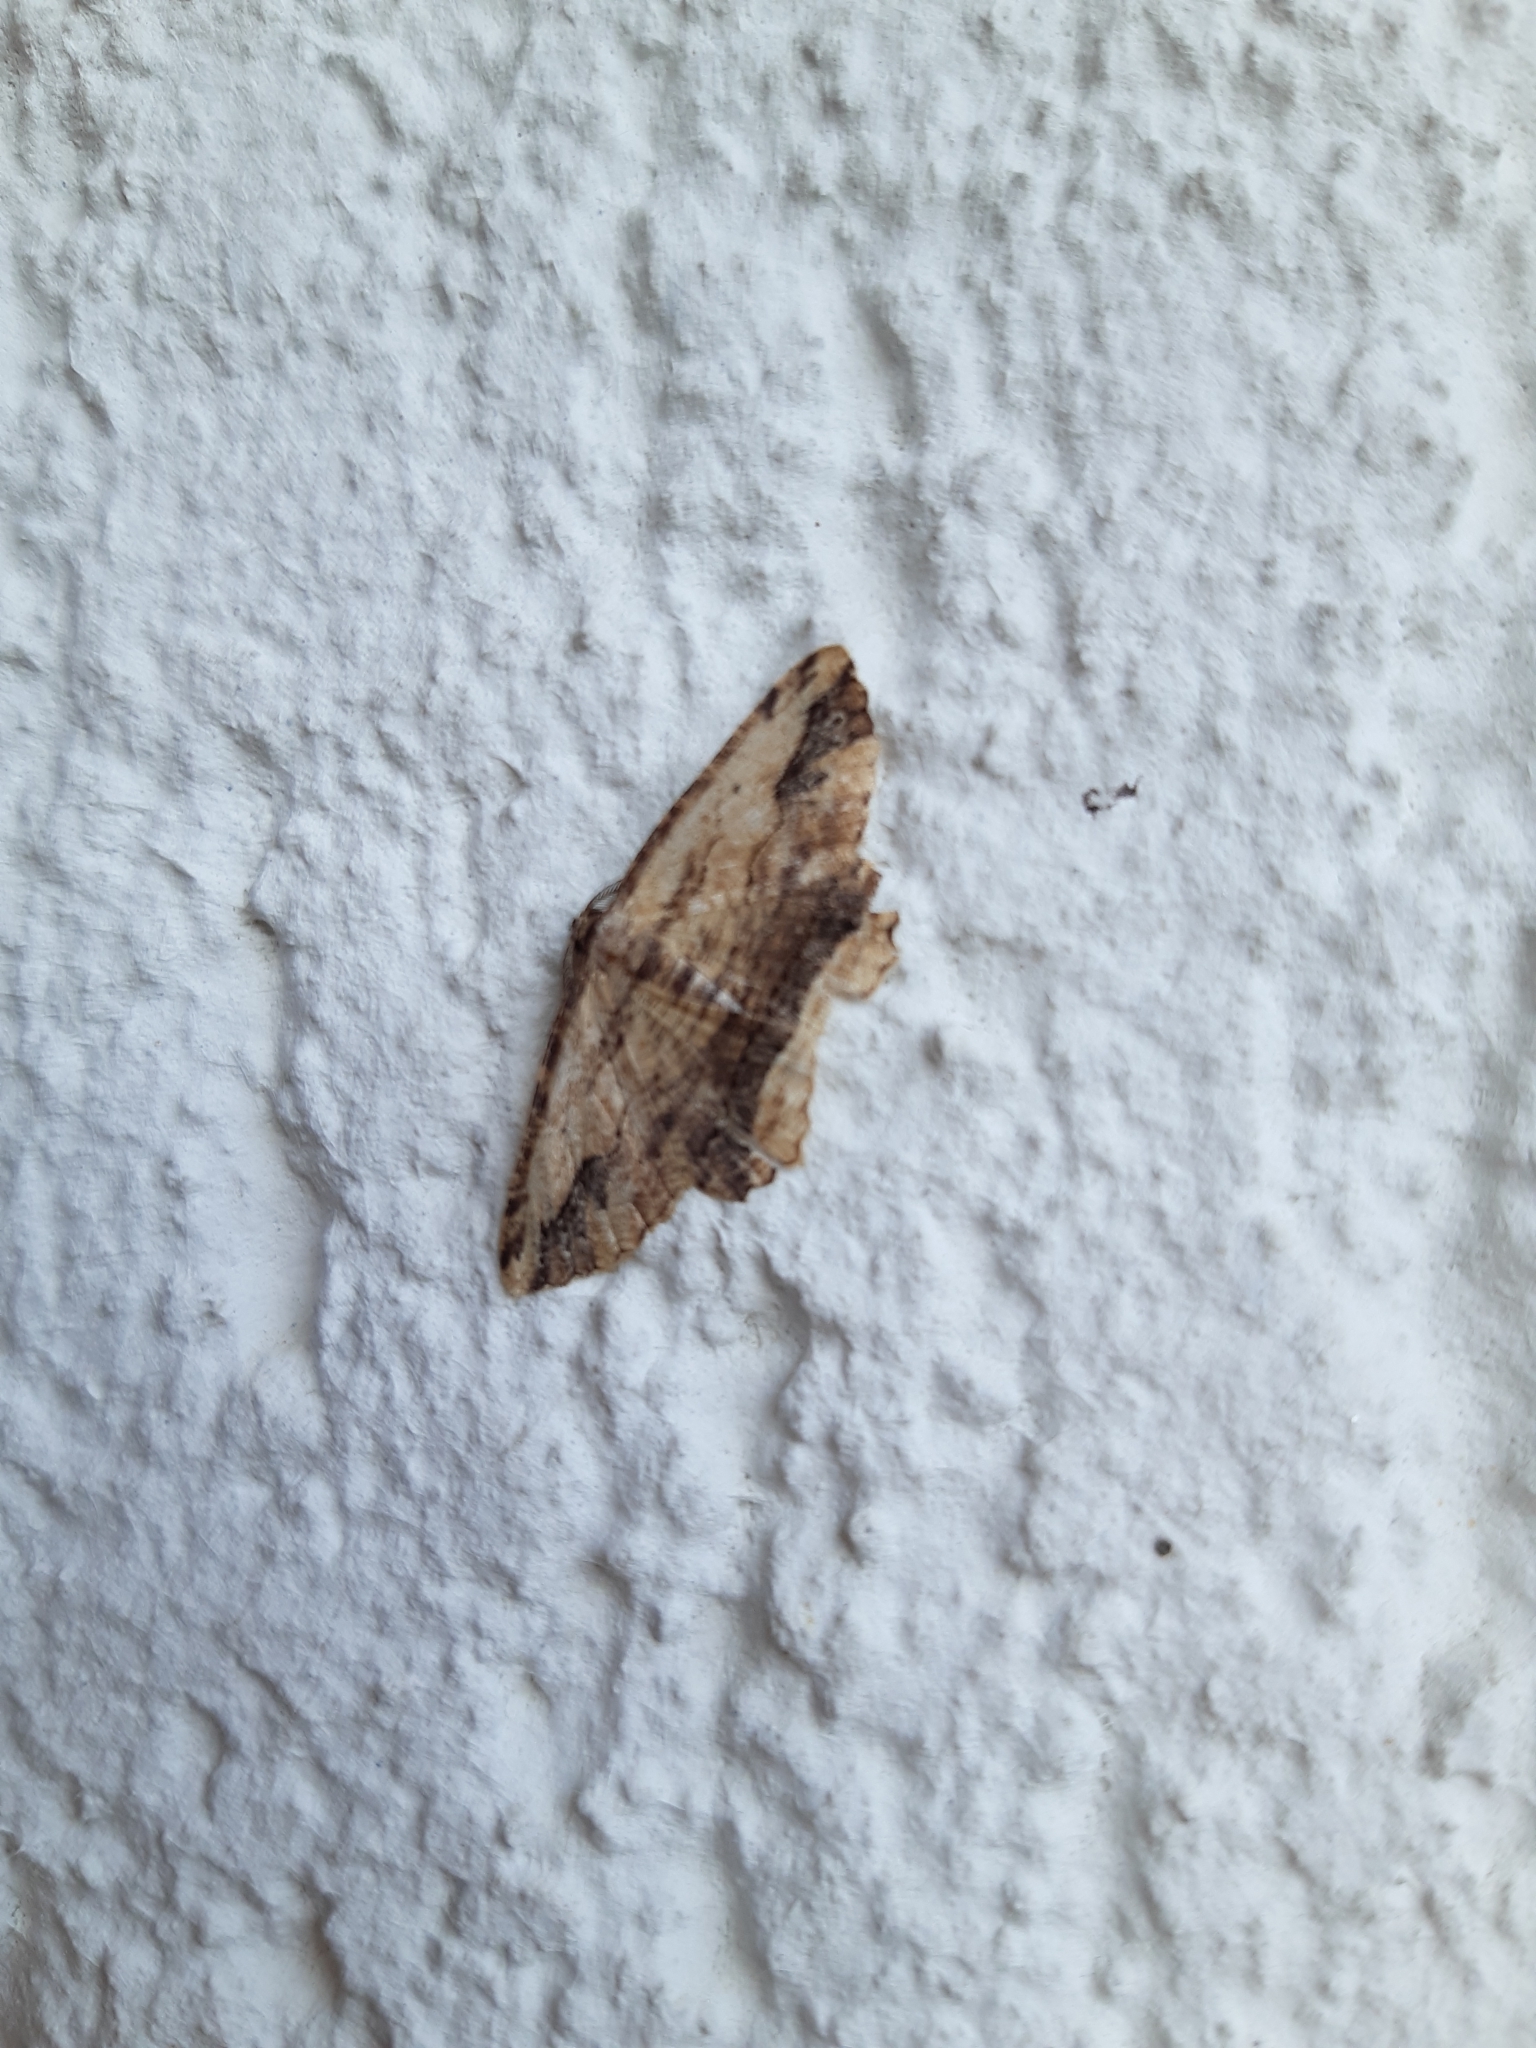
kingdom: Animalia
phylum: Arthropoda
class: Insecta
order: Lepidoptera
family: Geometridae
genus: Menophra
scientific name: Menophra abruptaria
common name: Waved umber
